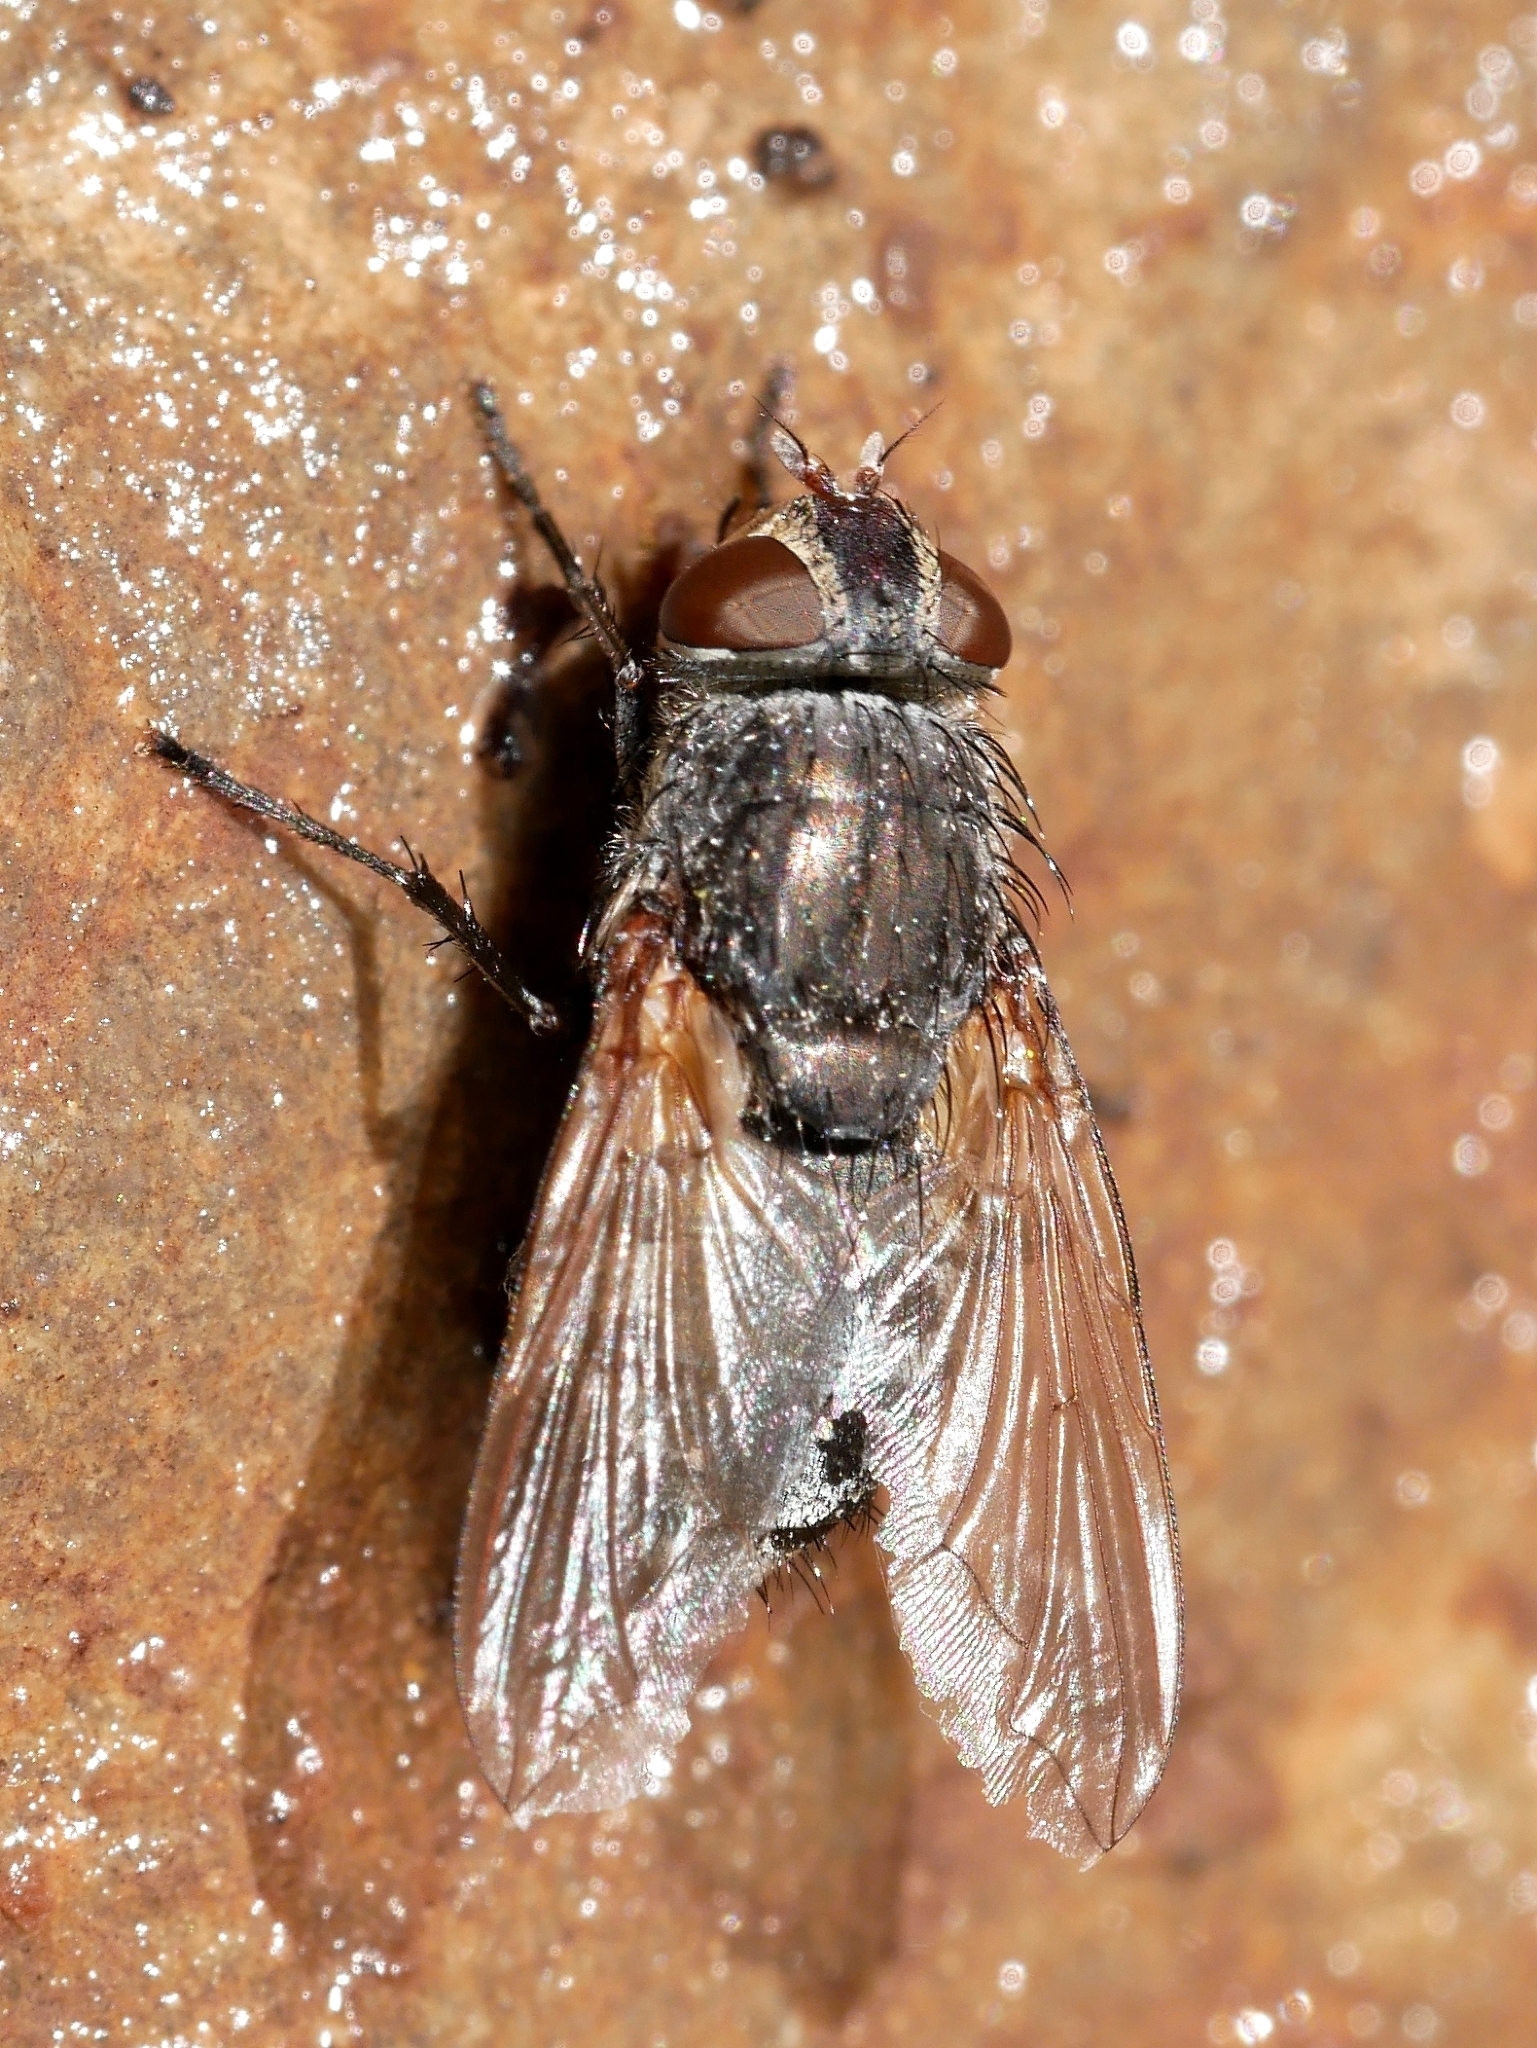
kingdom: Animalia
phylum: Arthropoda
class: Insecta
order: Diptera
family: Polleniidae
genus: Pollenia
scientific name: Pollenia
